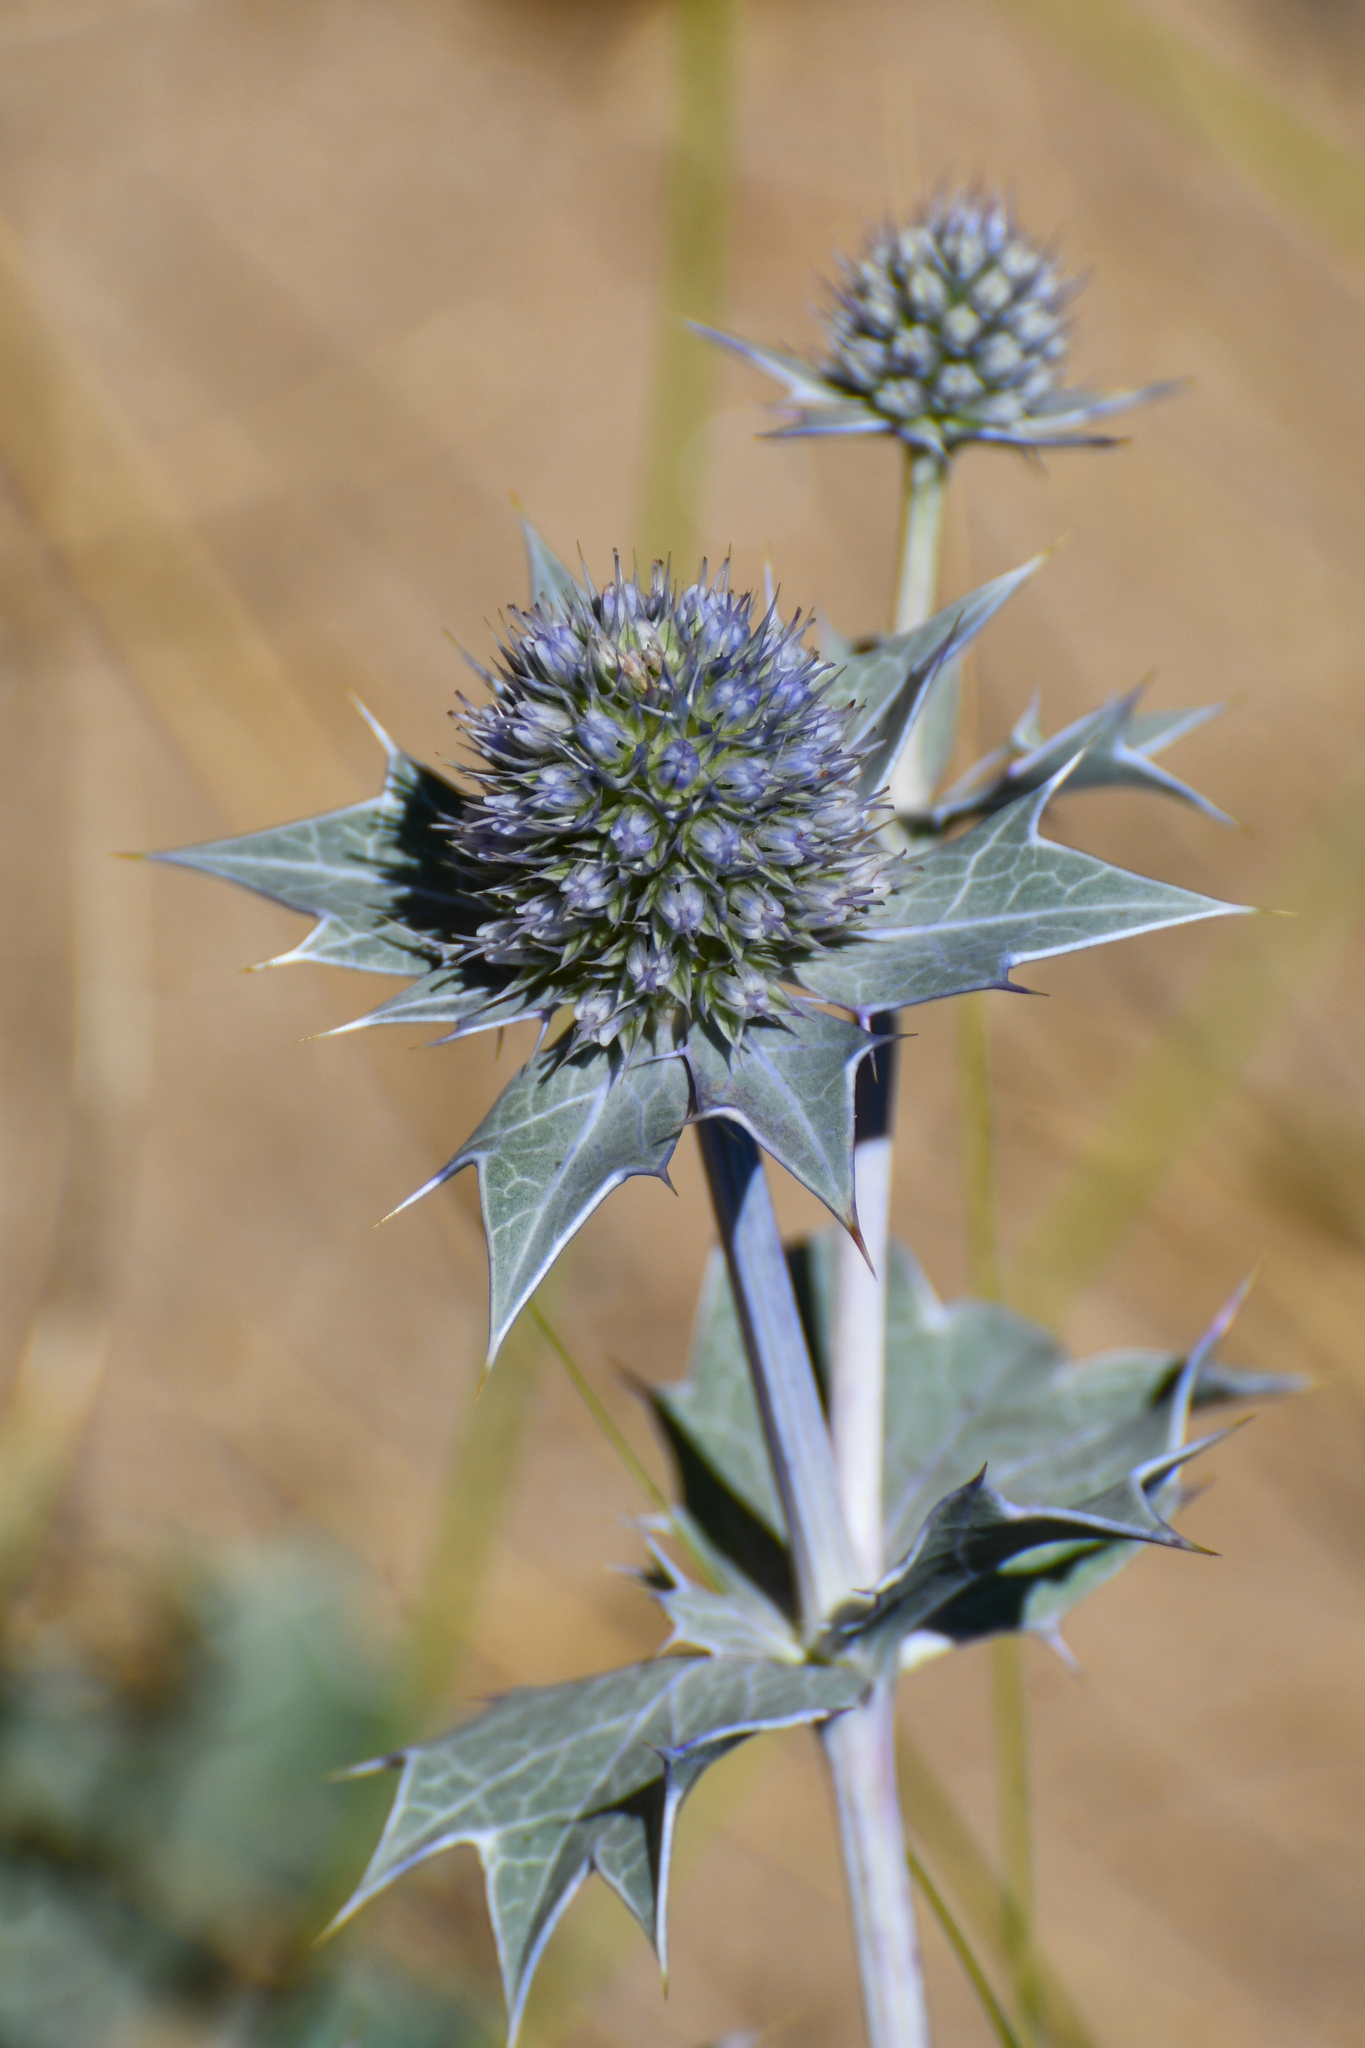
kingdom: Plantae
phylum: Tracheophyta
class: Magnoliopsida
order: Apiales
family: Apiaceae
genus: Eryngium
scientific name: Eryngium maritimum
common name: Sea-holly
